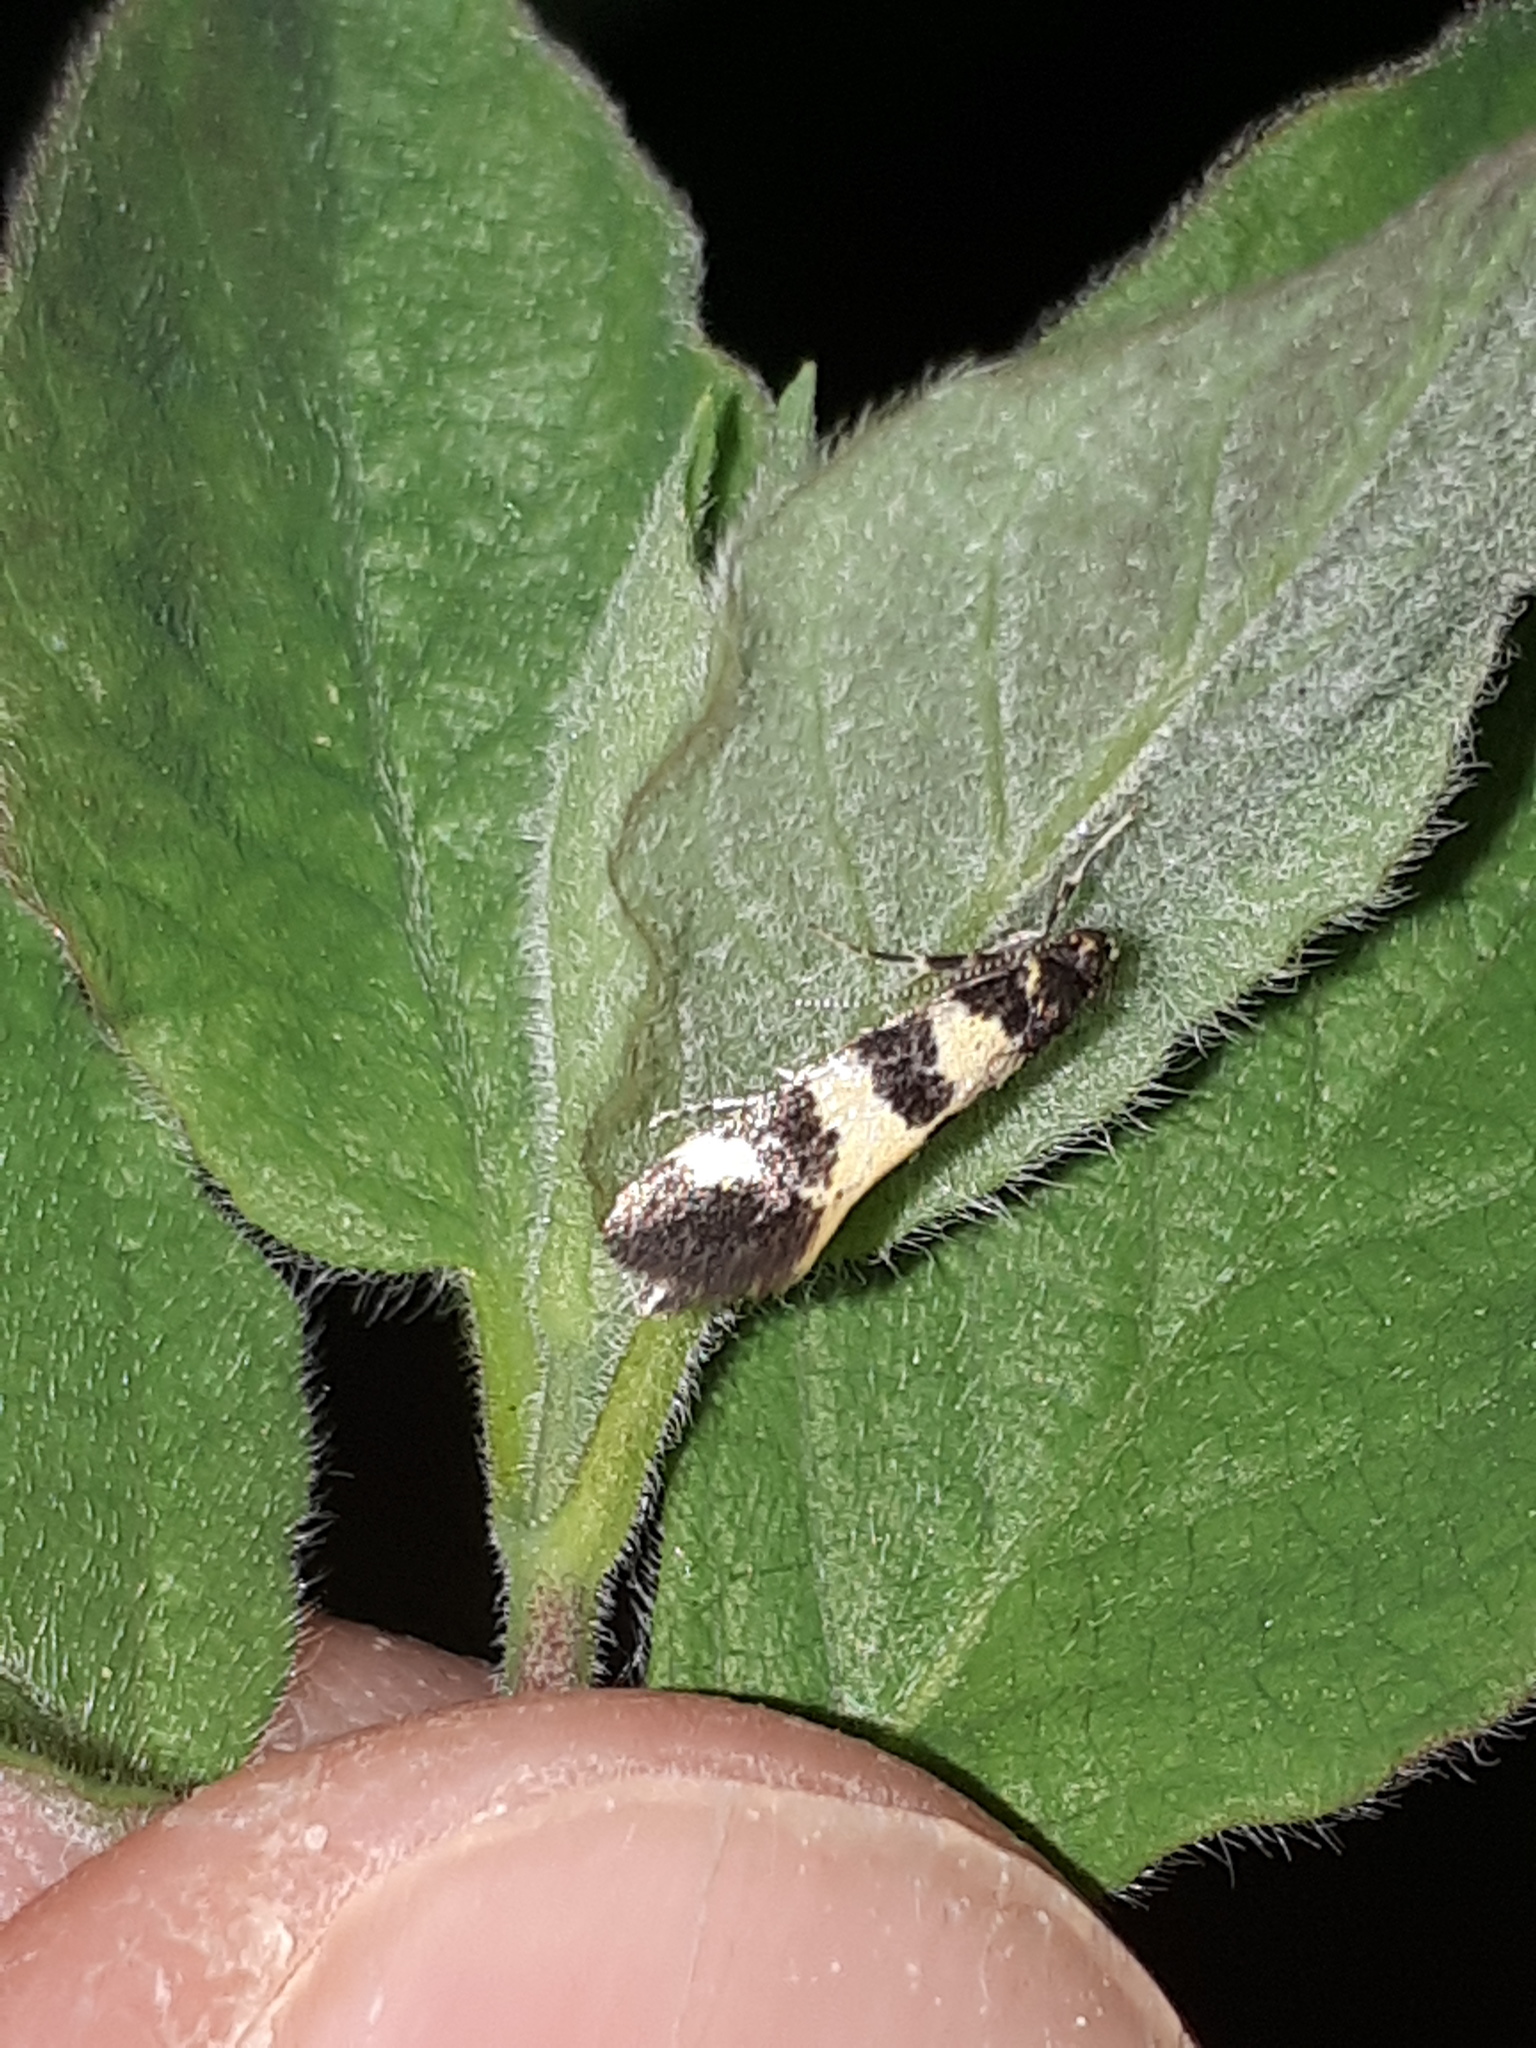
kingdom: Animalia
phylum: Arthropoda
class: Insecta
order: Lepidoptera
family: Oecophoridae
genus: Denisia
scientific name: Denisia augustella
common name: Surrey tubic
